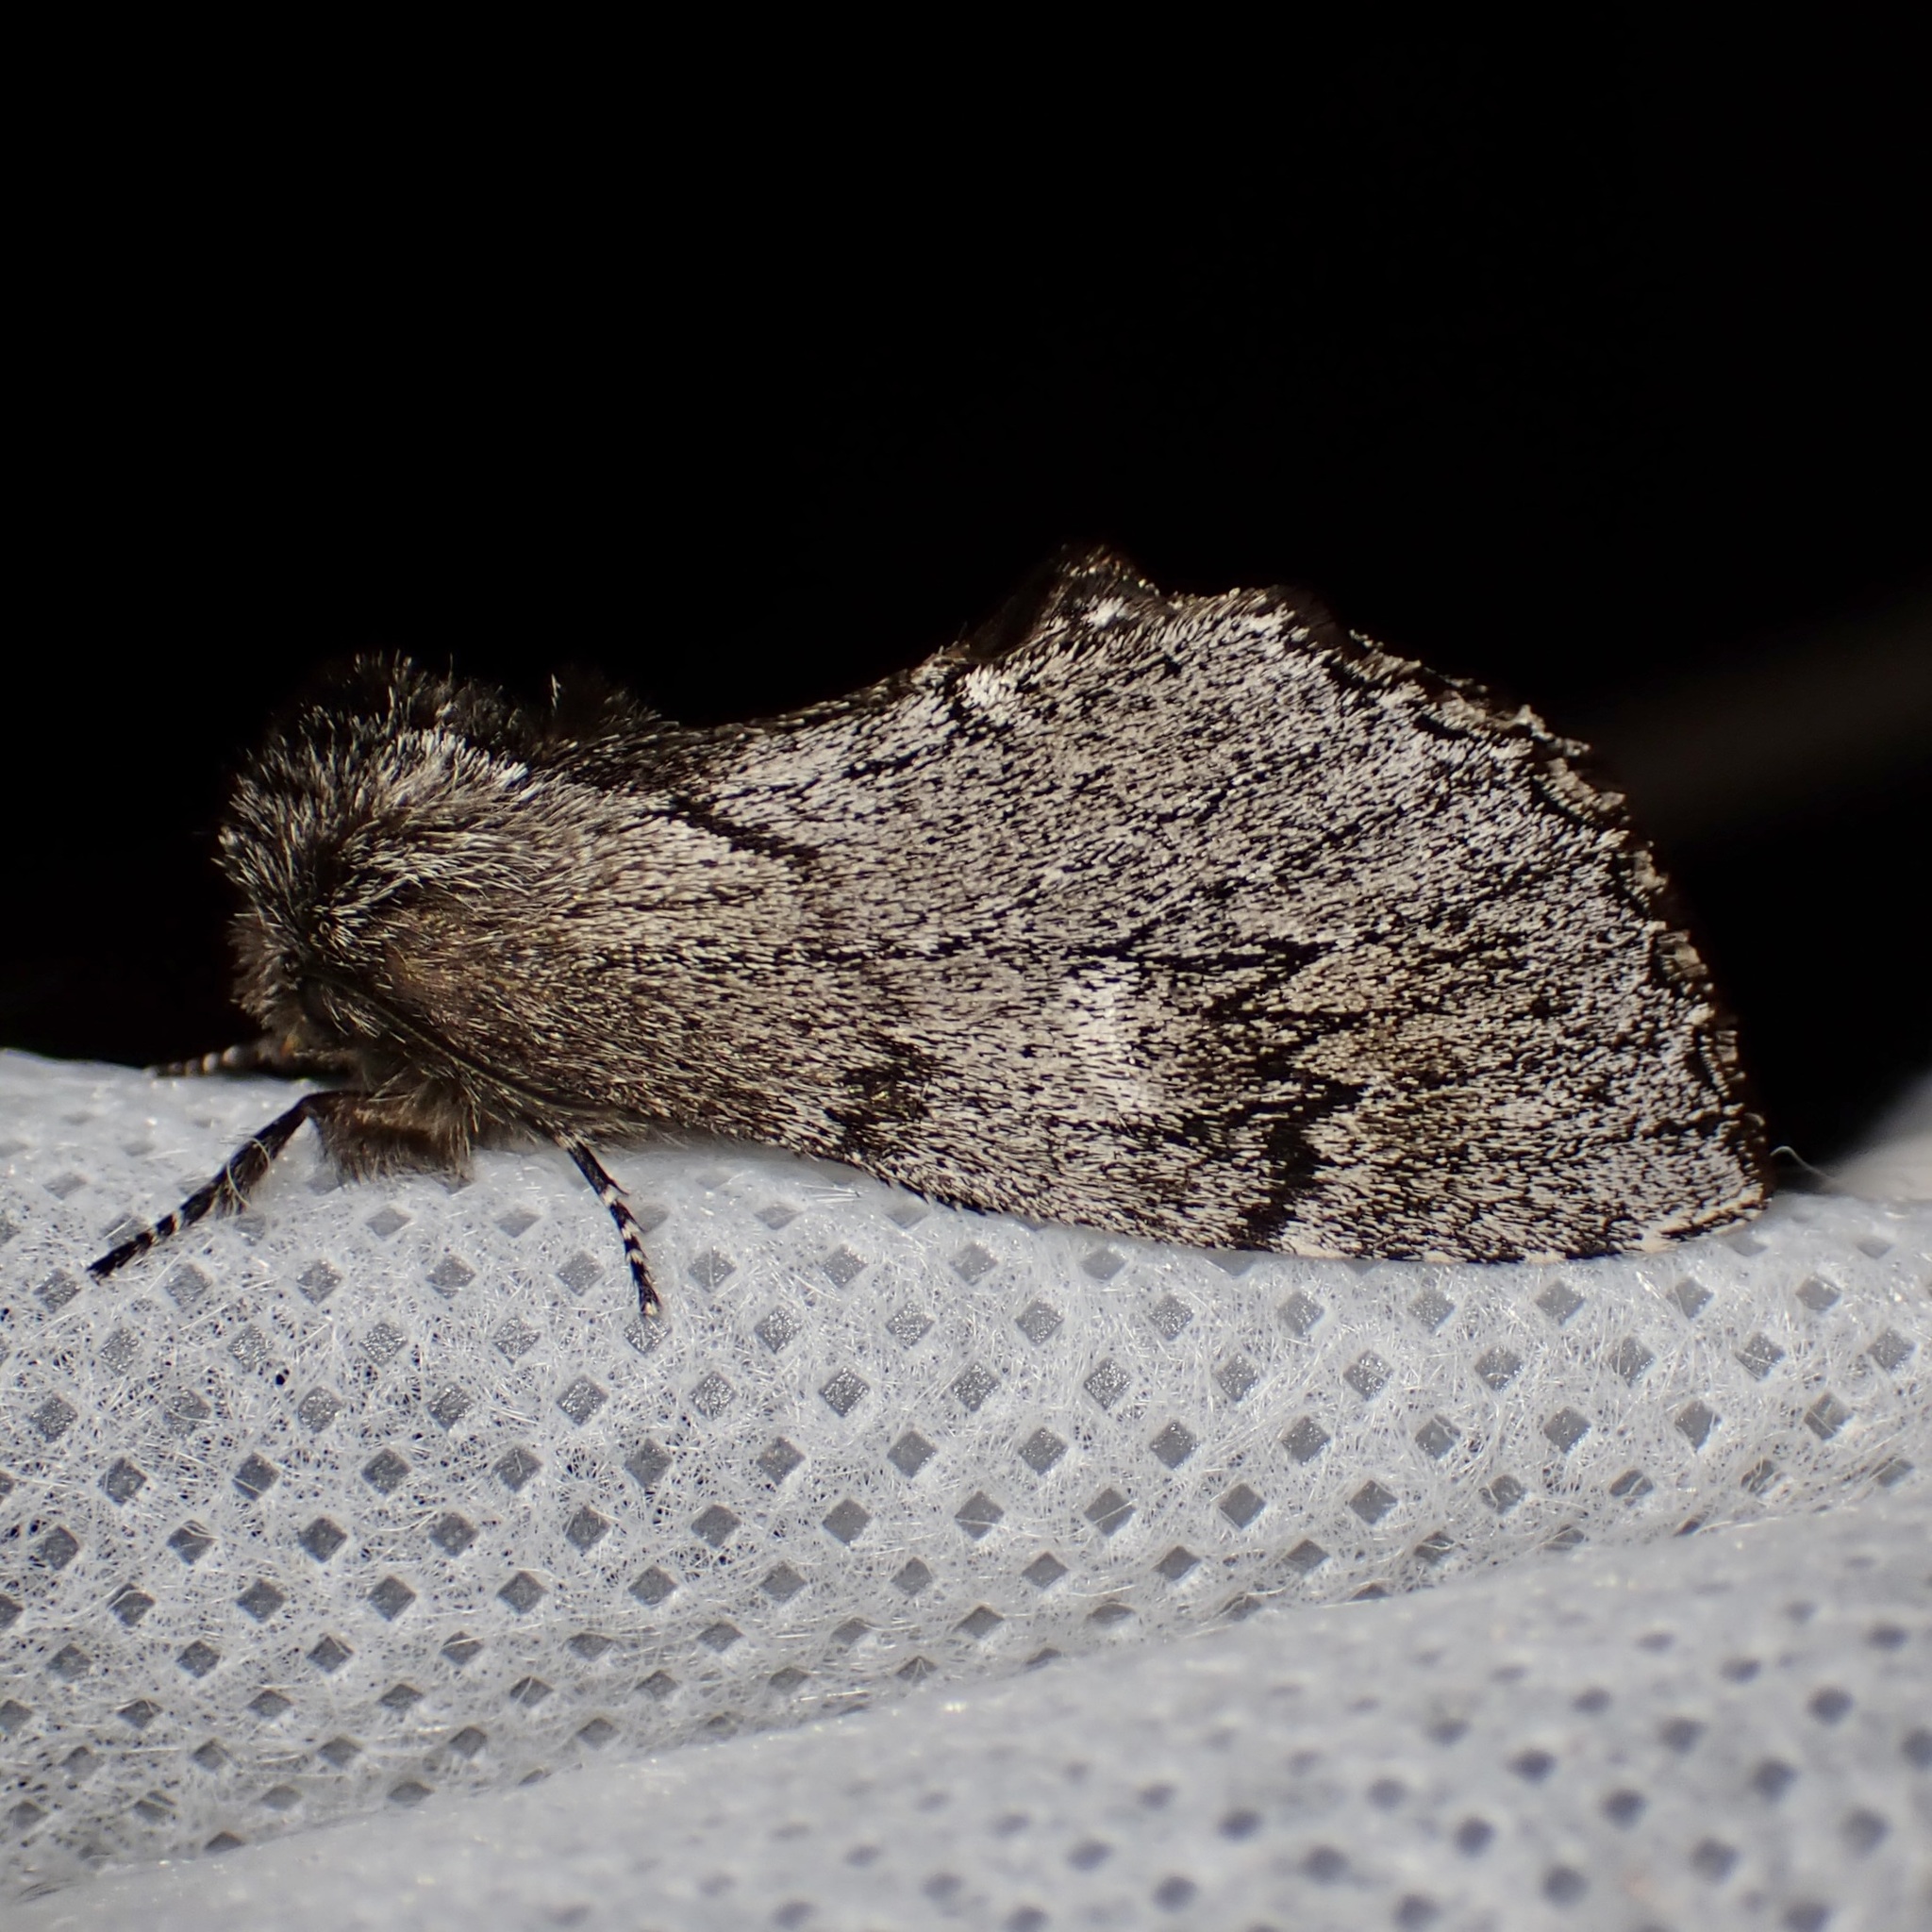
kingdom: Animalia
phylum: Arthropoda
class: Insecta
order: Lepidoptera
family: Notodontidae
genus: Cargida
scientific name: Cargida pyrrha
